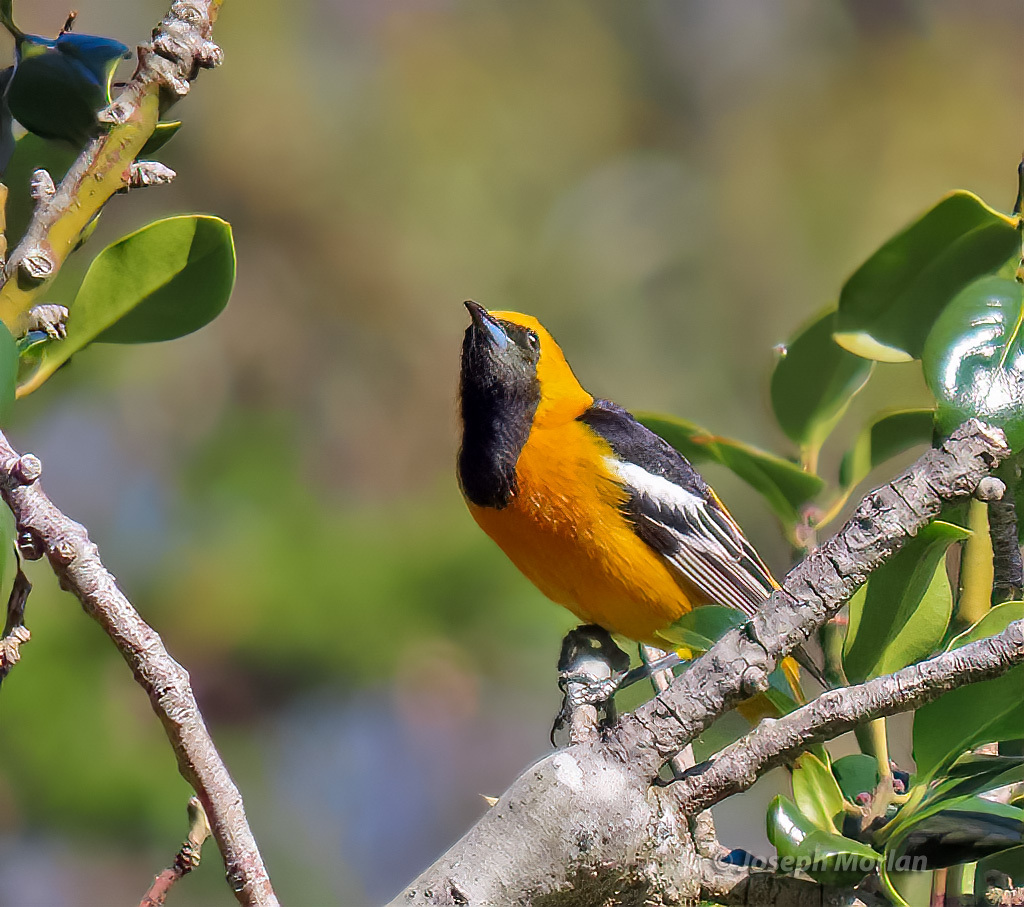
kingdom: Animalia
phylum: Chordata
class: Aves
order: Passeriformes
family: Icteridae
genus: Icterus
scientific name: Icterus cucullatus
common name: Hooded oriole
